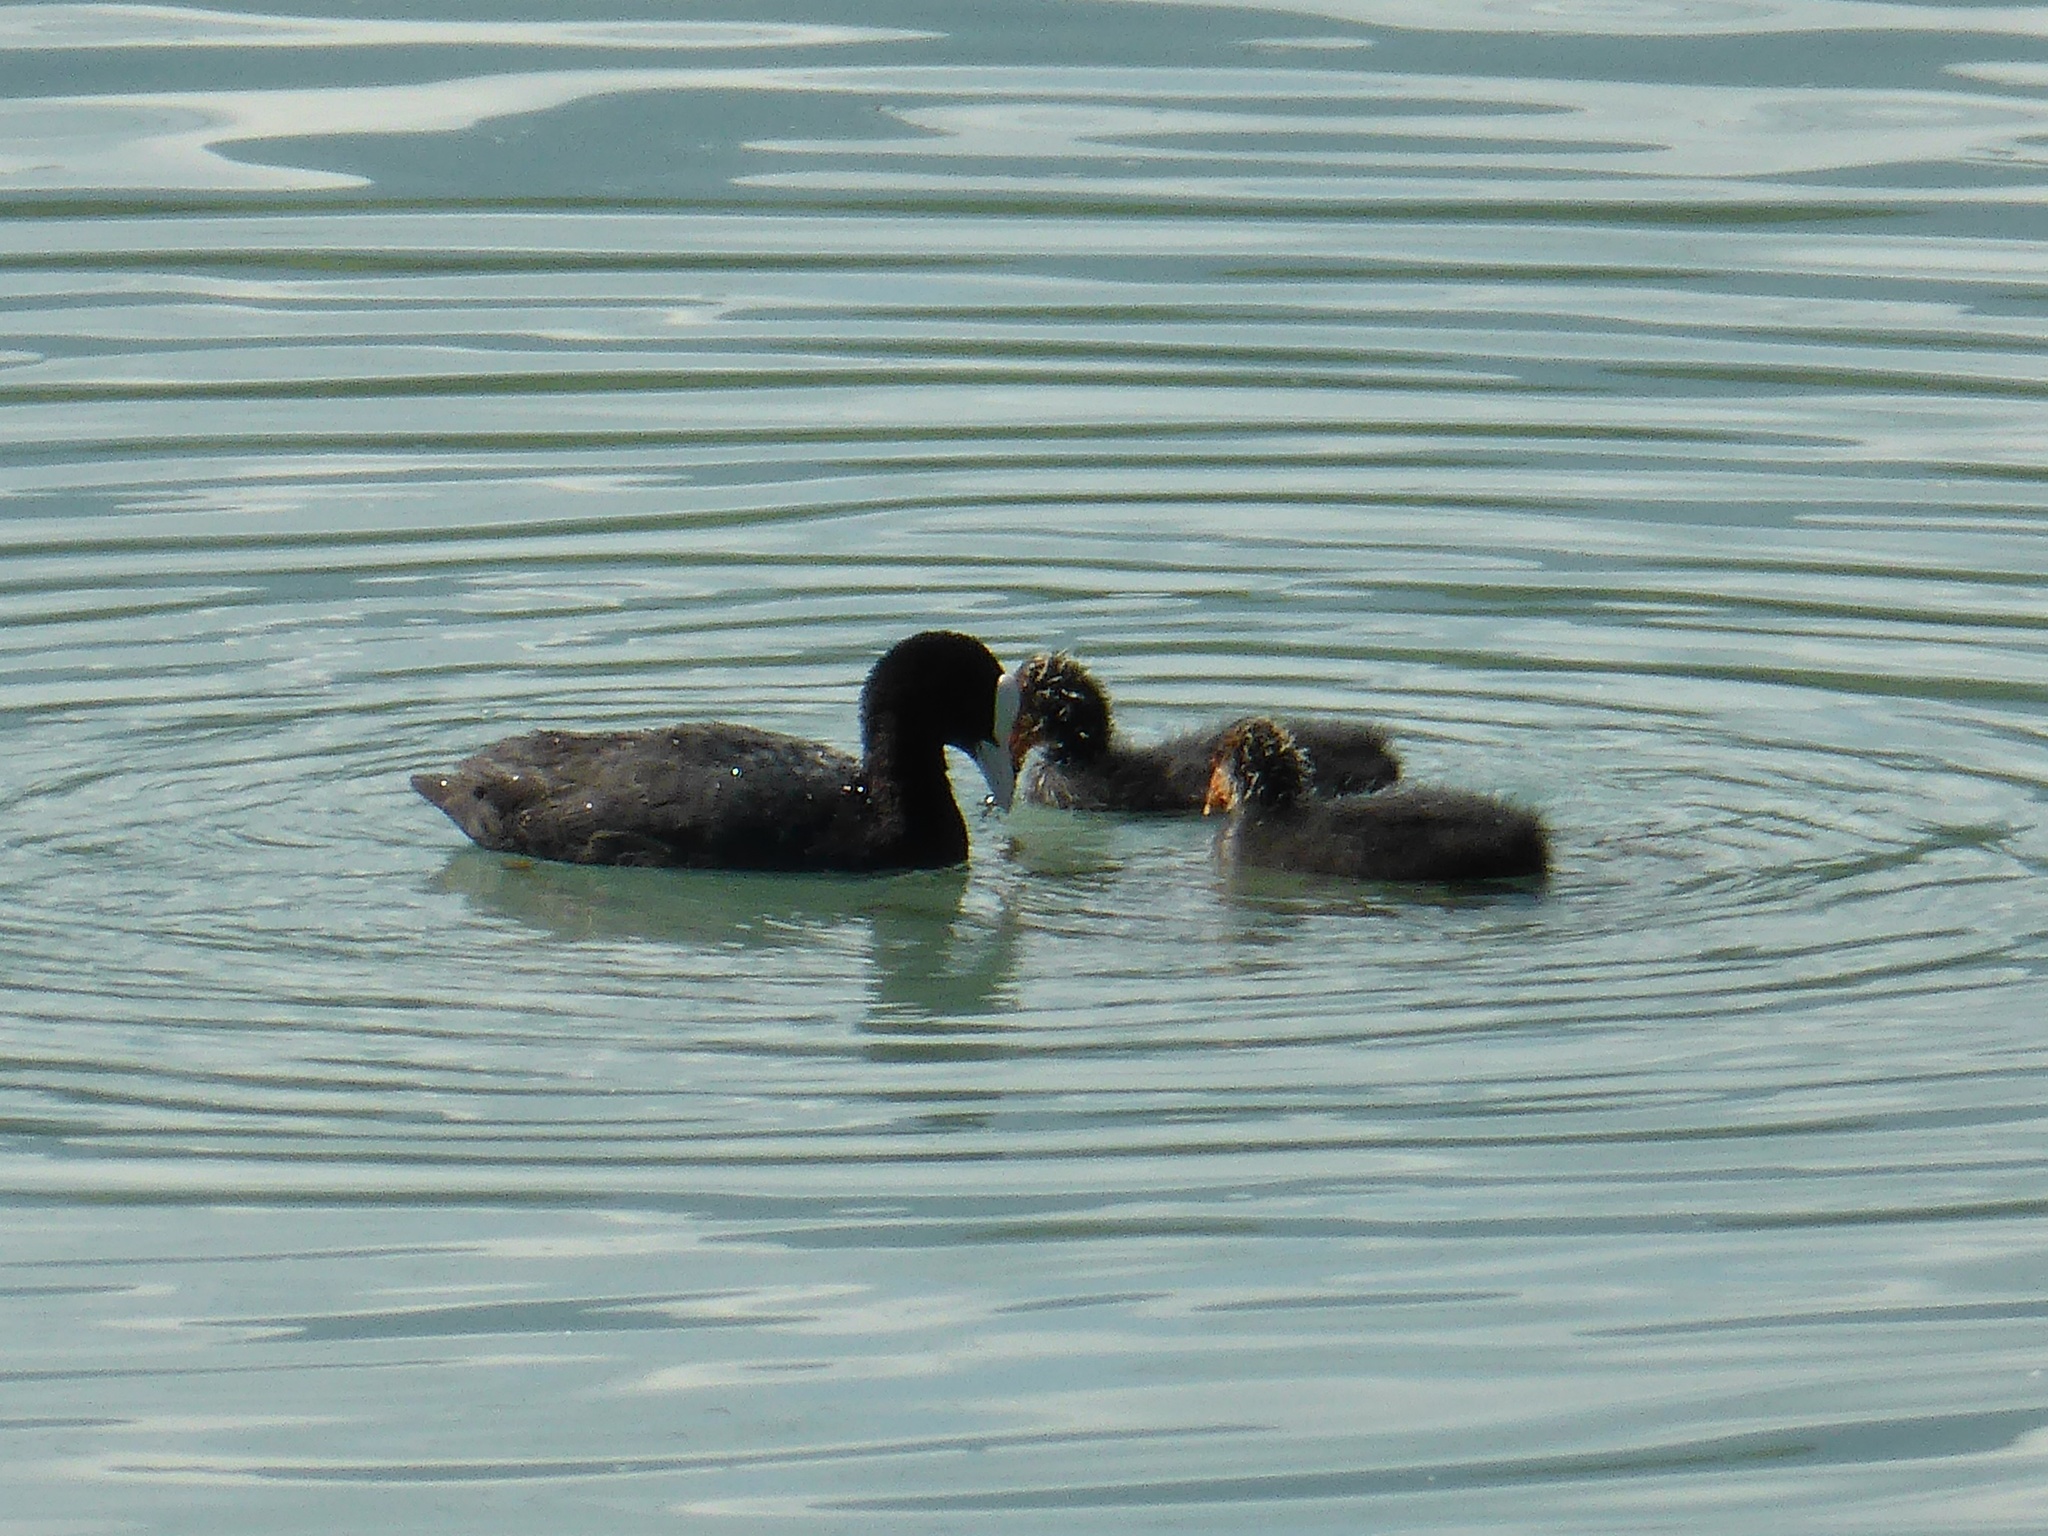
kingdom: Animalia
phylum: Chordata
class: Aves
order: Gruiformes
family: Rallidae
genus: Fulica
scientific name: Fulica atra
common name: Eurasian coot
